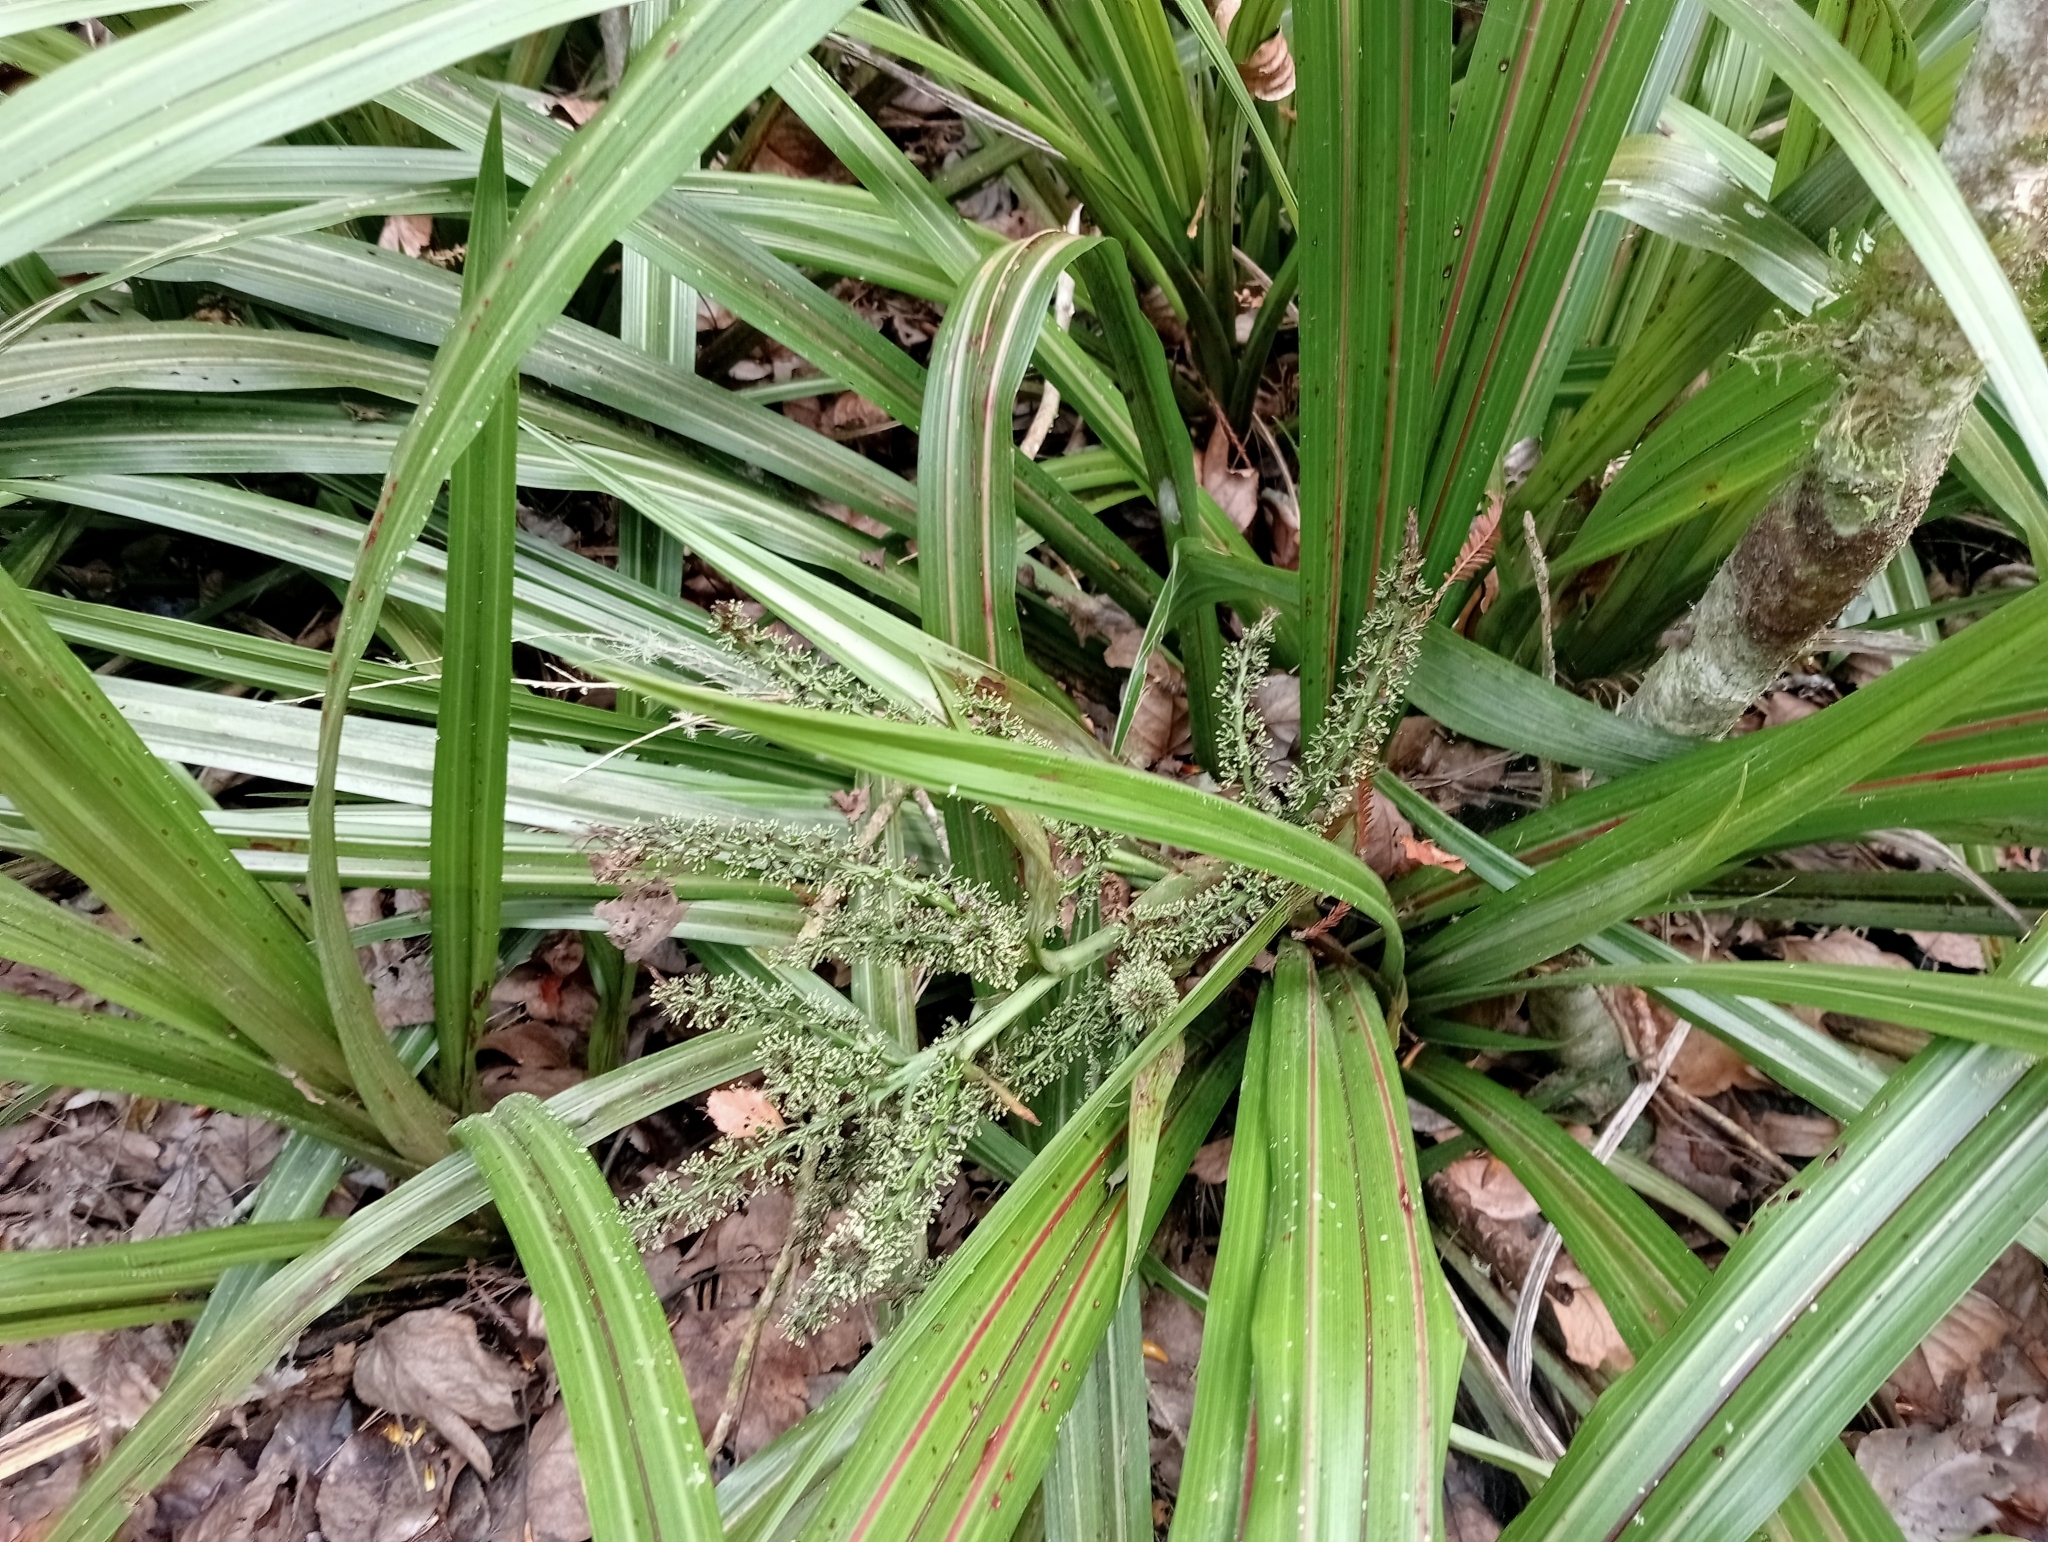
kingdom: Plantae
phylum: Tracheophyta
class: Liliopsida
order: Asparagales
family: Asteliaceae
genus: Astelia
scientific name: Astelia fragrans
